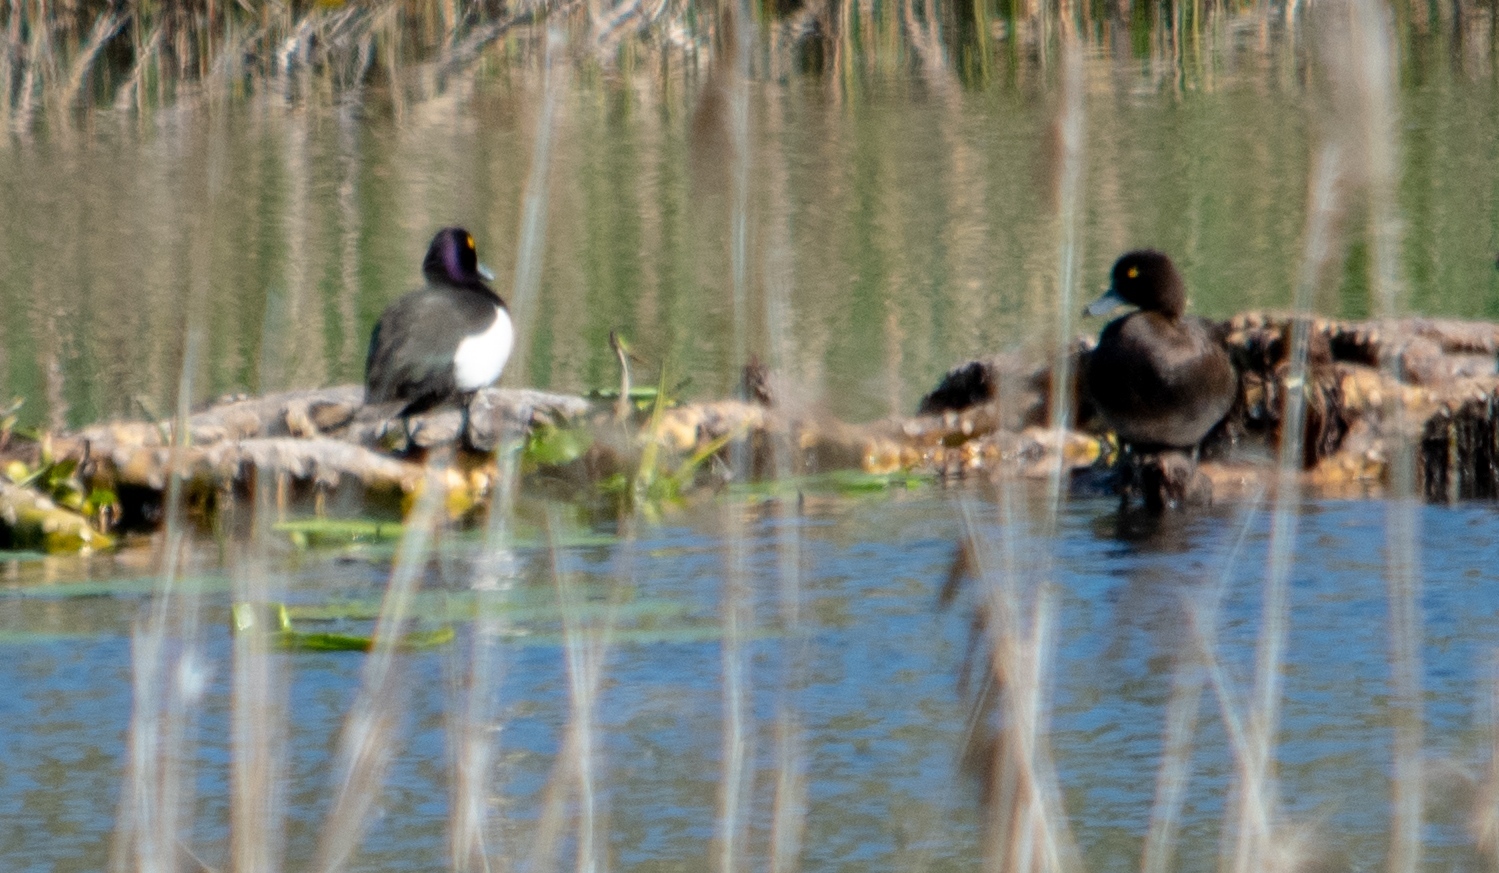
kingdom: Animalia
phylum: Chordata
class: Aves
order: Anseriformes
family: Anatidae
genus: Aythya
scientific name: Aythya fuligula
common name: Tufted duck
